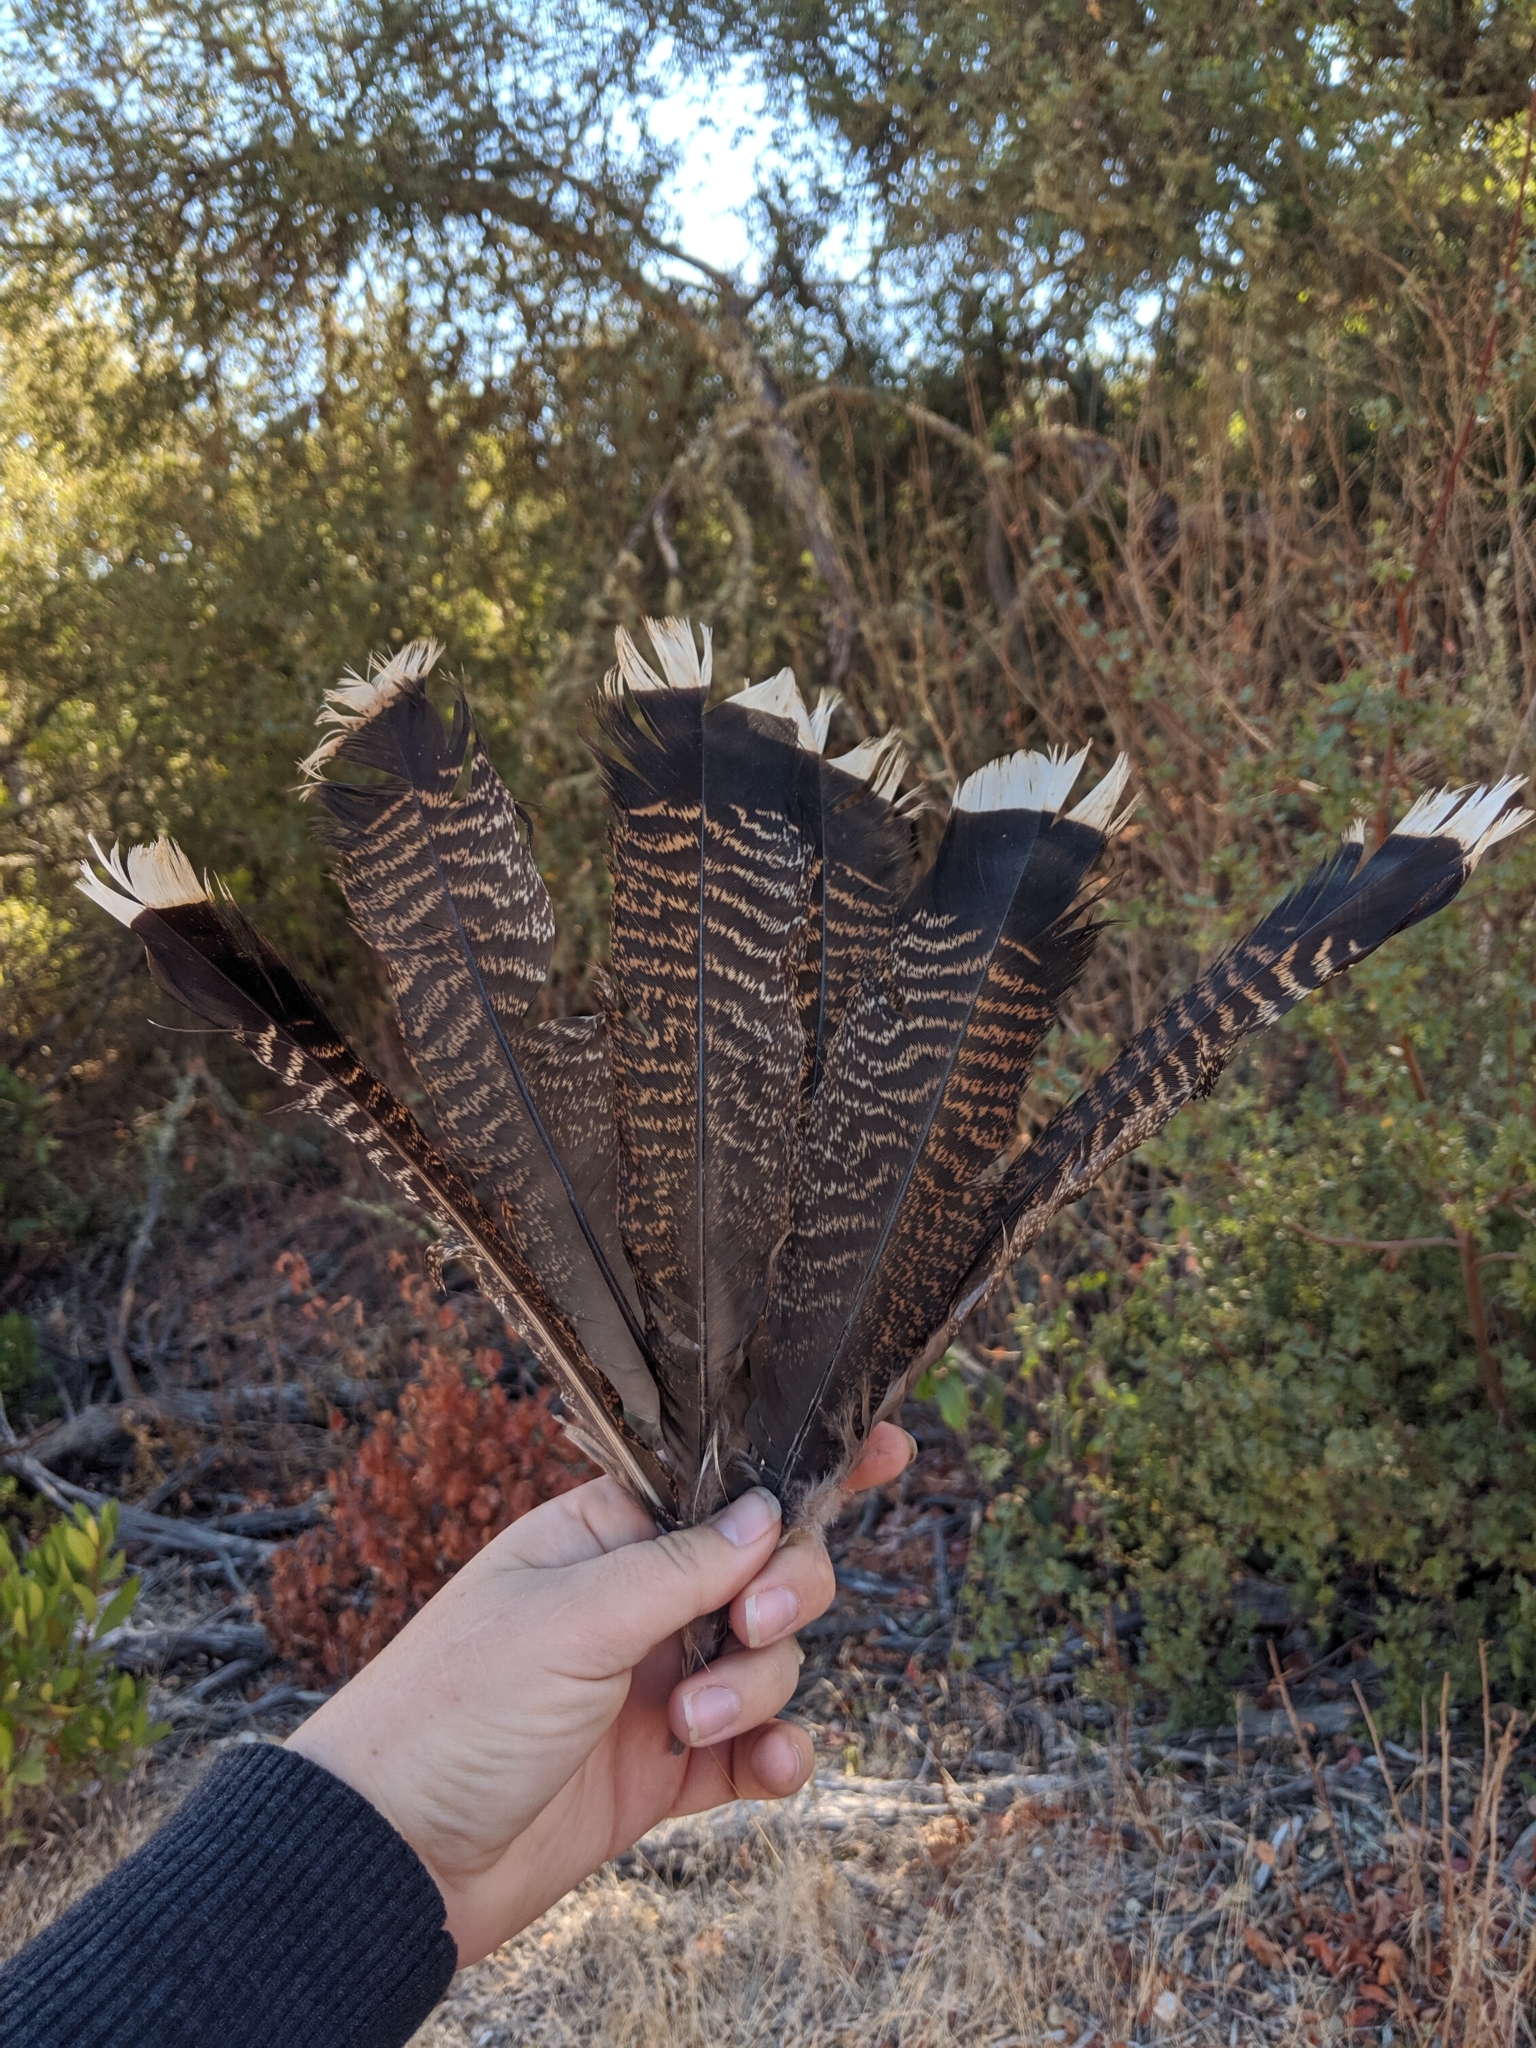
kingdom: Animalia
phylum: Chordata
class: Aves
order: Galliformes
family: Phasianidae
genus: Meleagris
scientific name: Meleagris gallopavo
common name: Wild turkey
